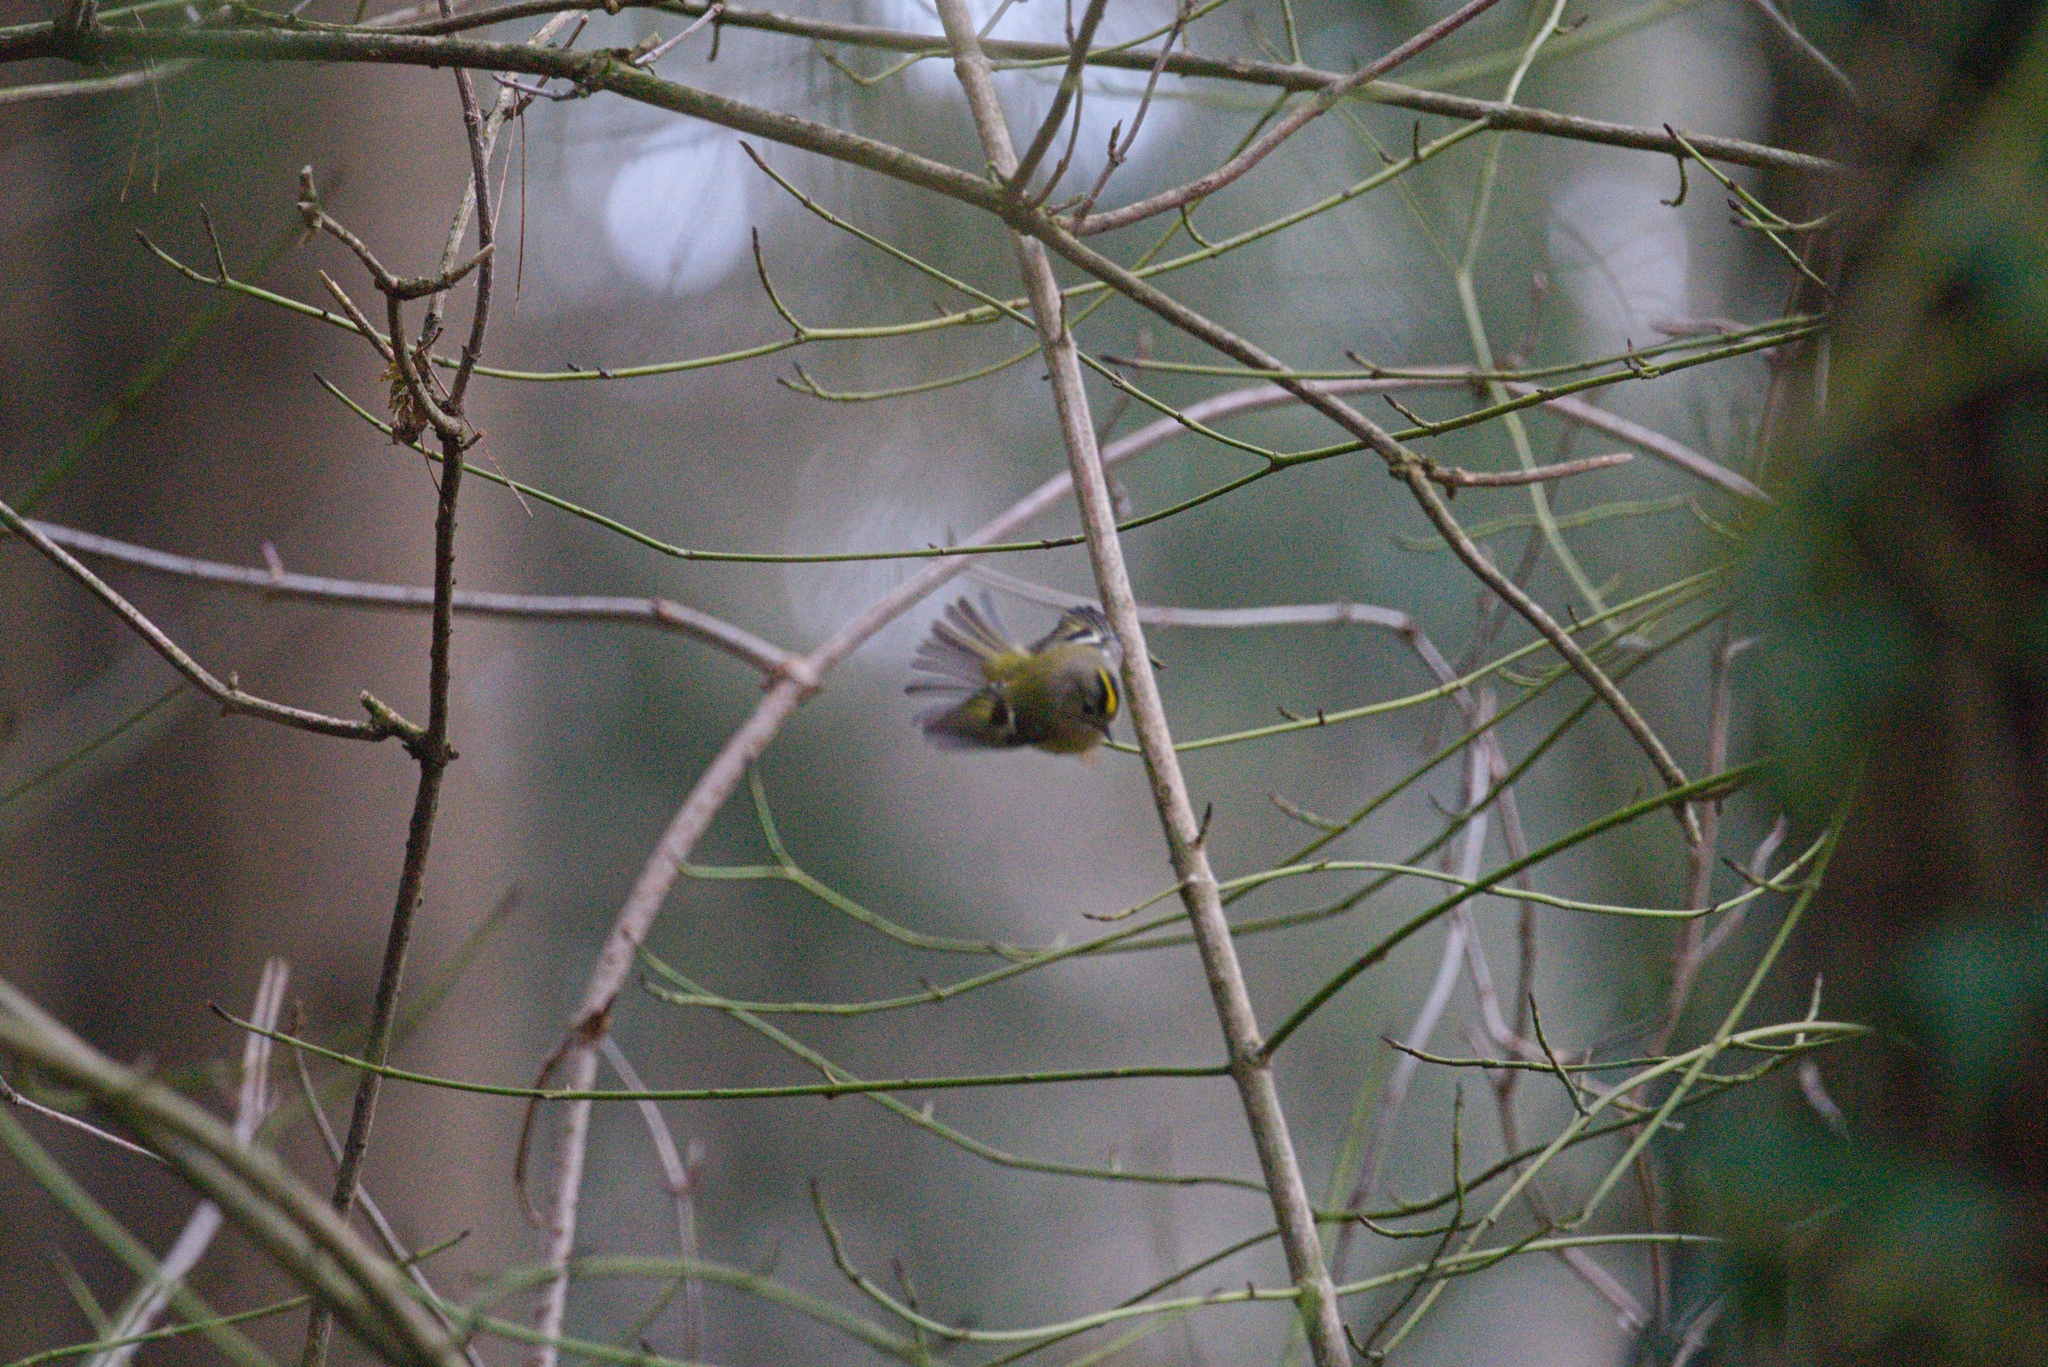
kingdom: Animalia
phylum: Chordata
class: Aves
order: Passeriformes
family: Regulidae
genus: Regulus
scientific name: Regulus regulus
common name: Goldcrest
